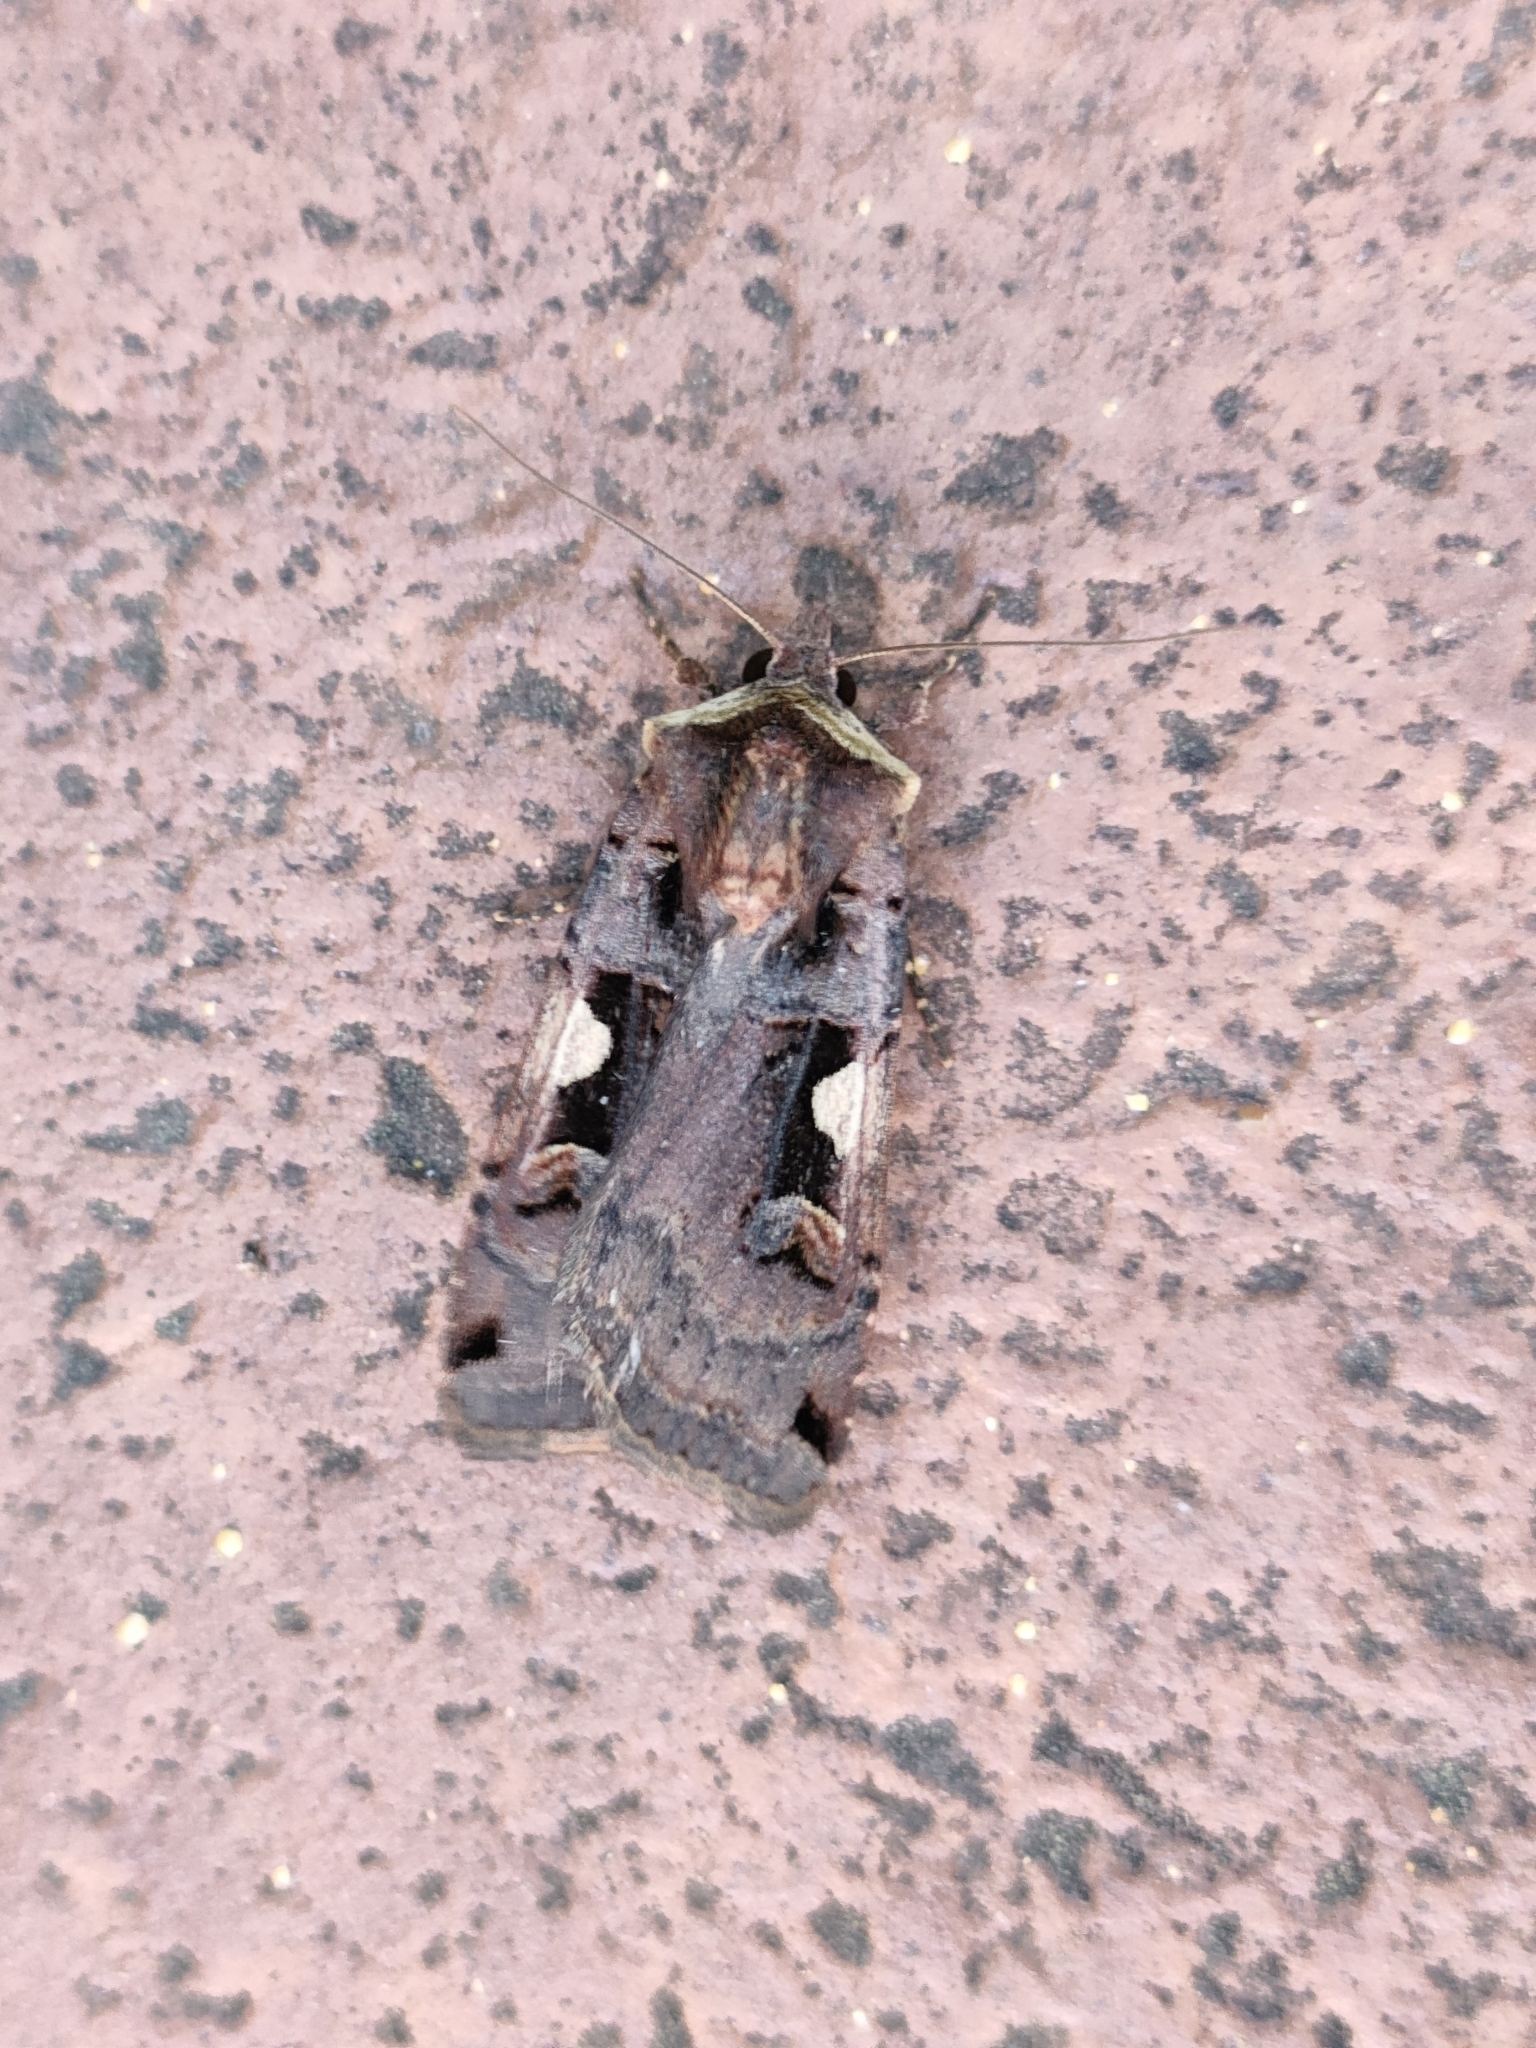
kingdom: Animalia
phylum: Arthropoda
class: Insecta
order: Lepidoptera
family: Noctuidae
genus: Xestia
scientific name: Xestia c-nigrum
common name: Setaceous hebrew character
